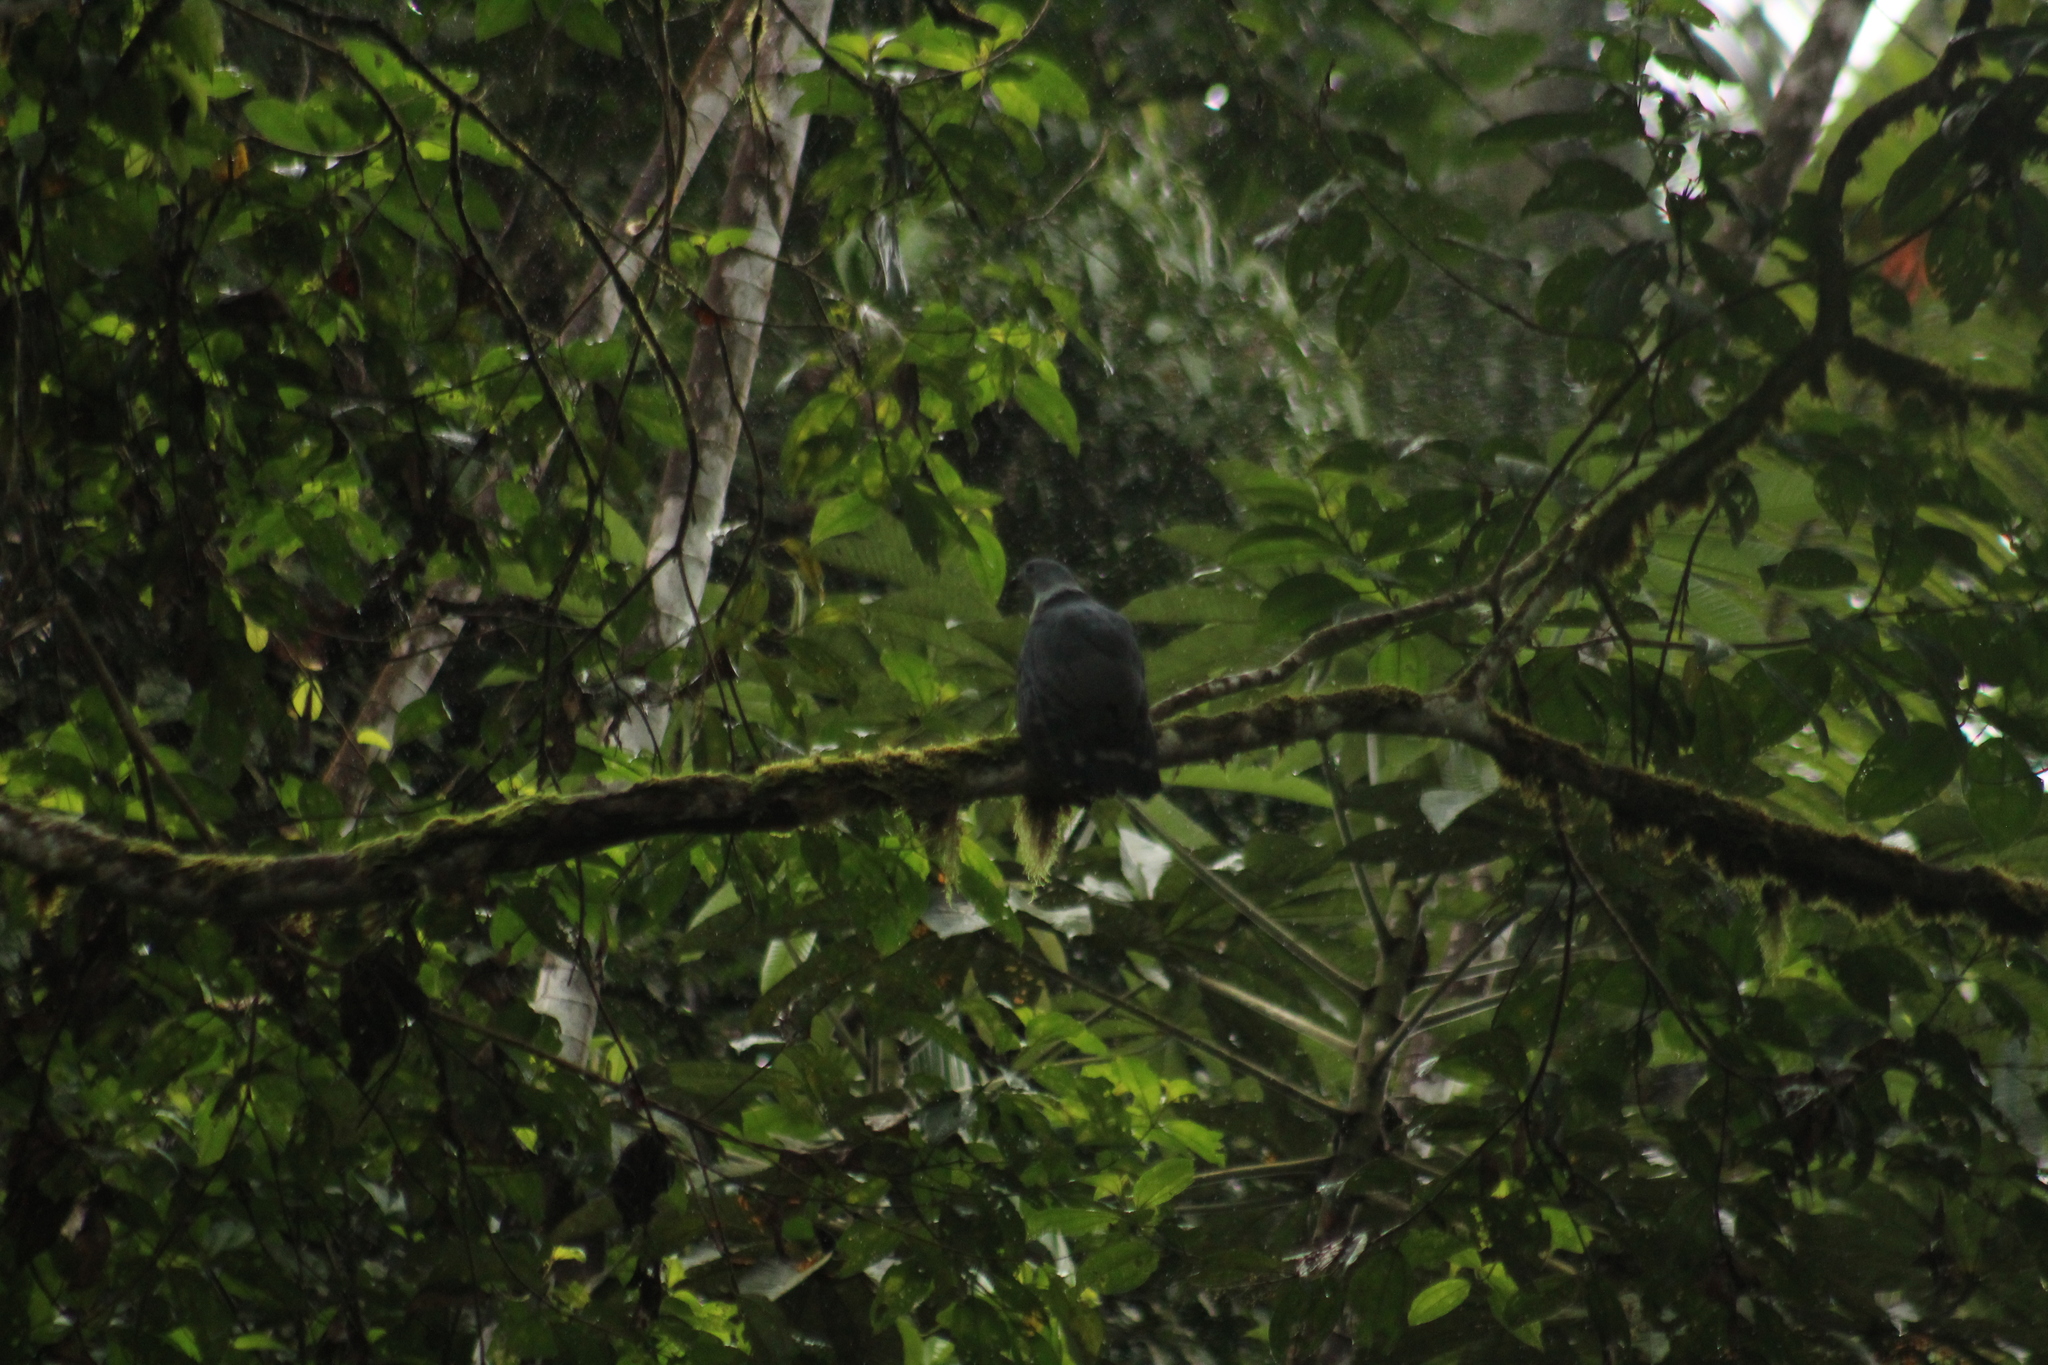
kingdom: Animalia
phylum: Chordata
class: Aves
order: Accipitriformes
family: Accipitridae
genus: Leptodon
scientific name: Leptodon cayanensis
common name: Gray-headed kite
